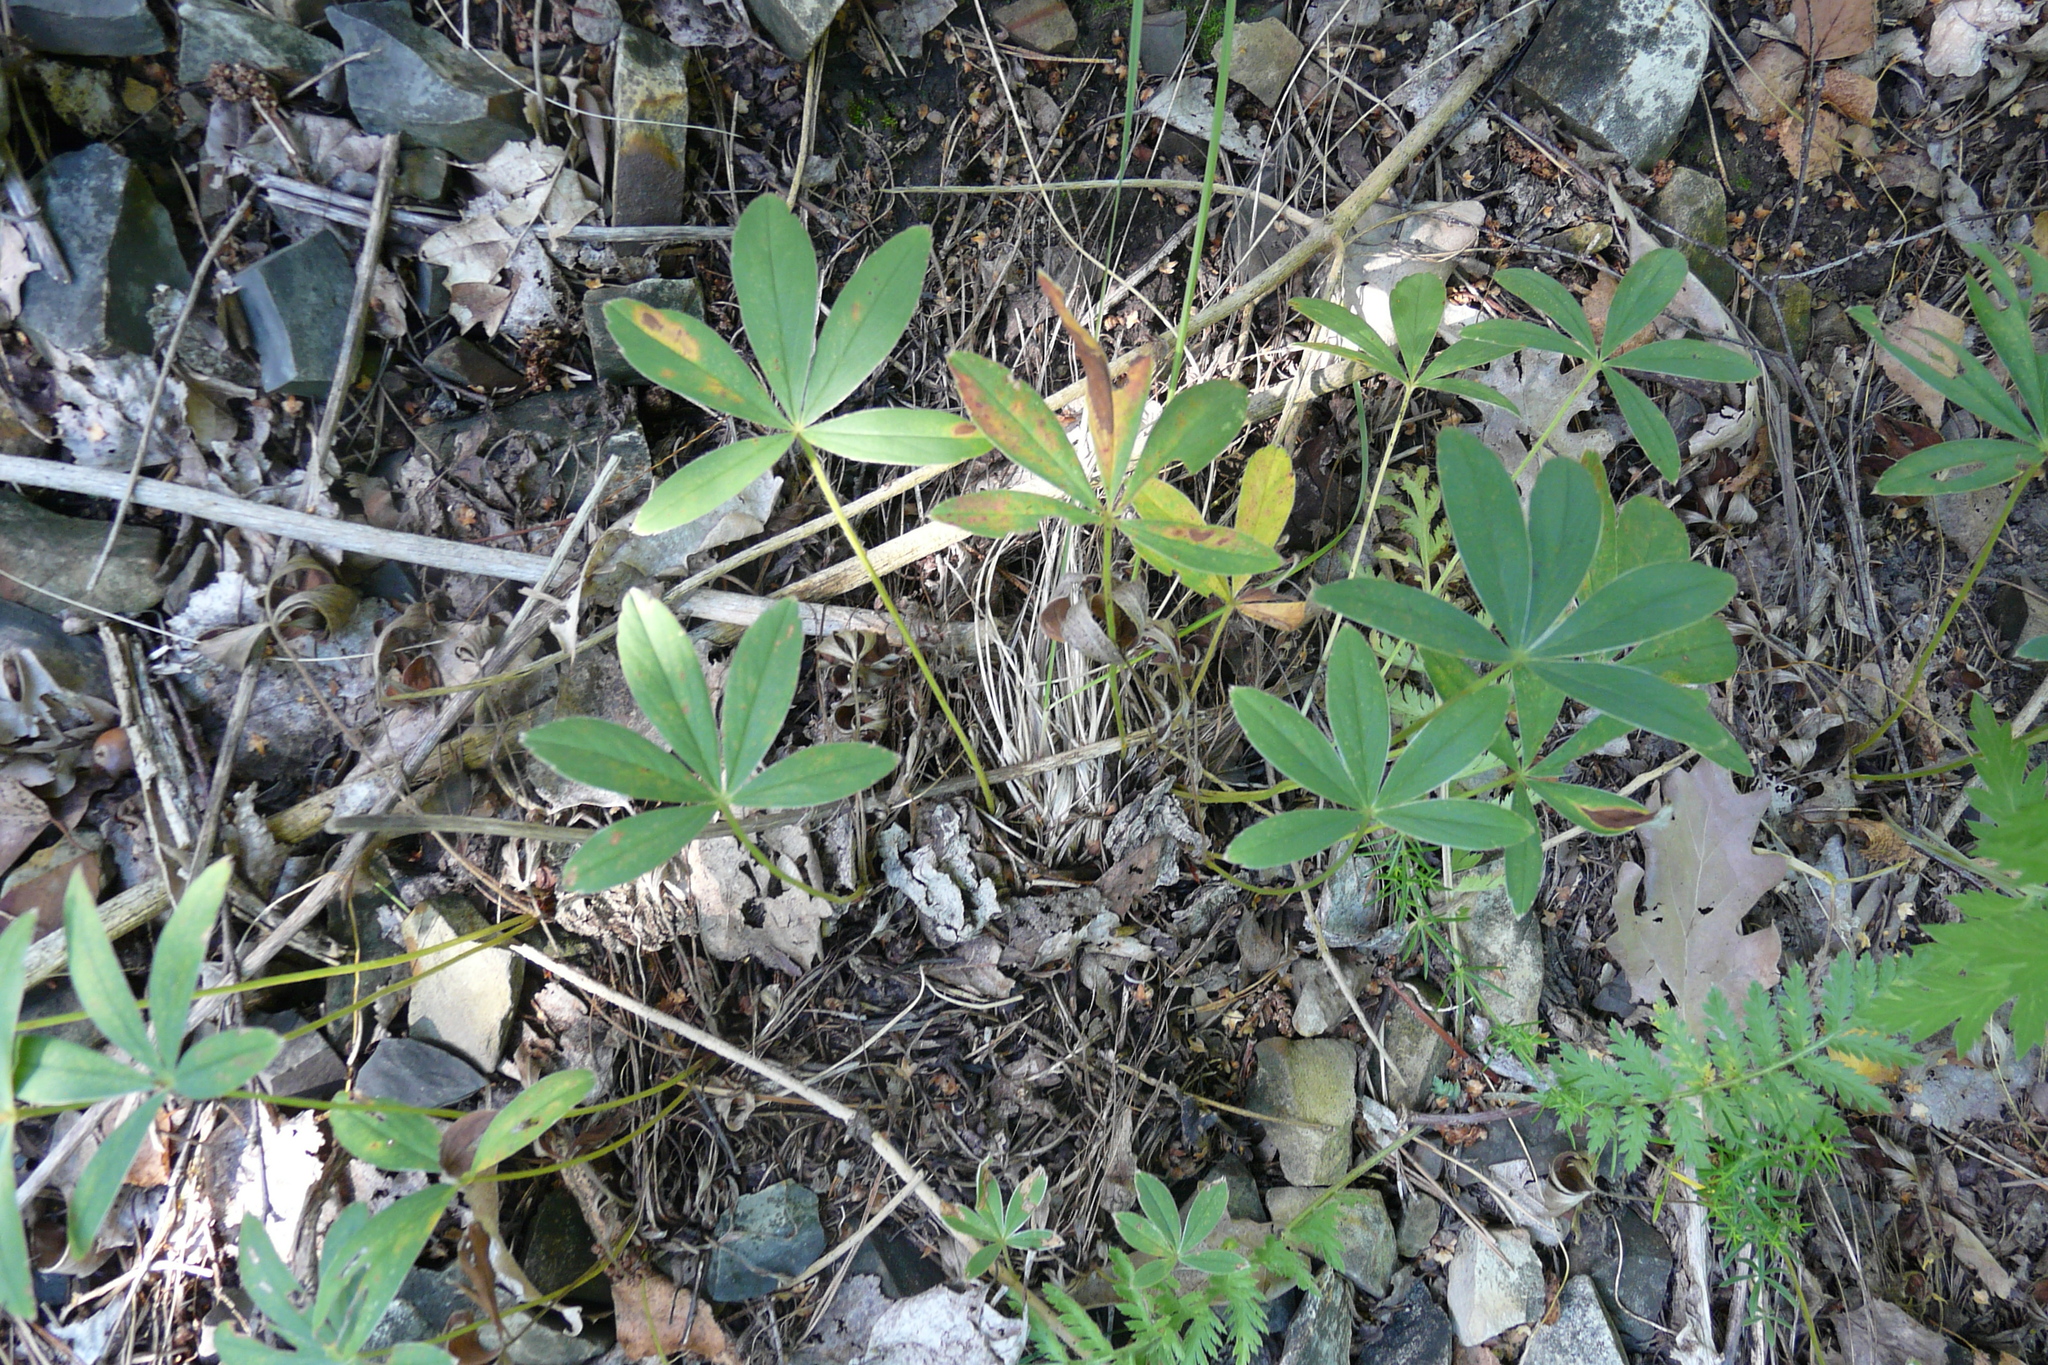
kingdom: Plantae
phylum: Tracheophyta
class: Magnoliopsida
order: Rosales
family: Rosaceae
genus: Potentilla
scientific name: Potentilla alba
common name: White cinquefoil
